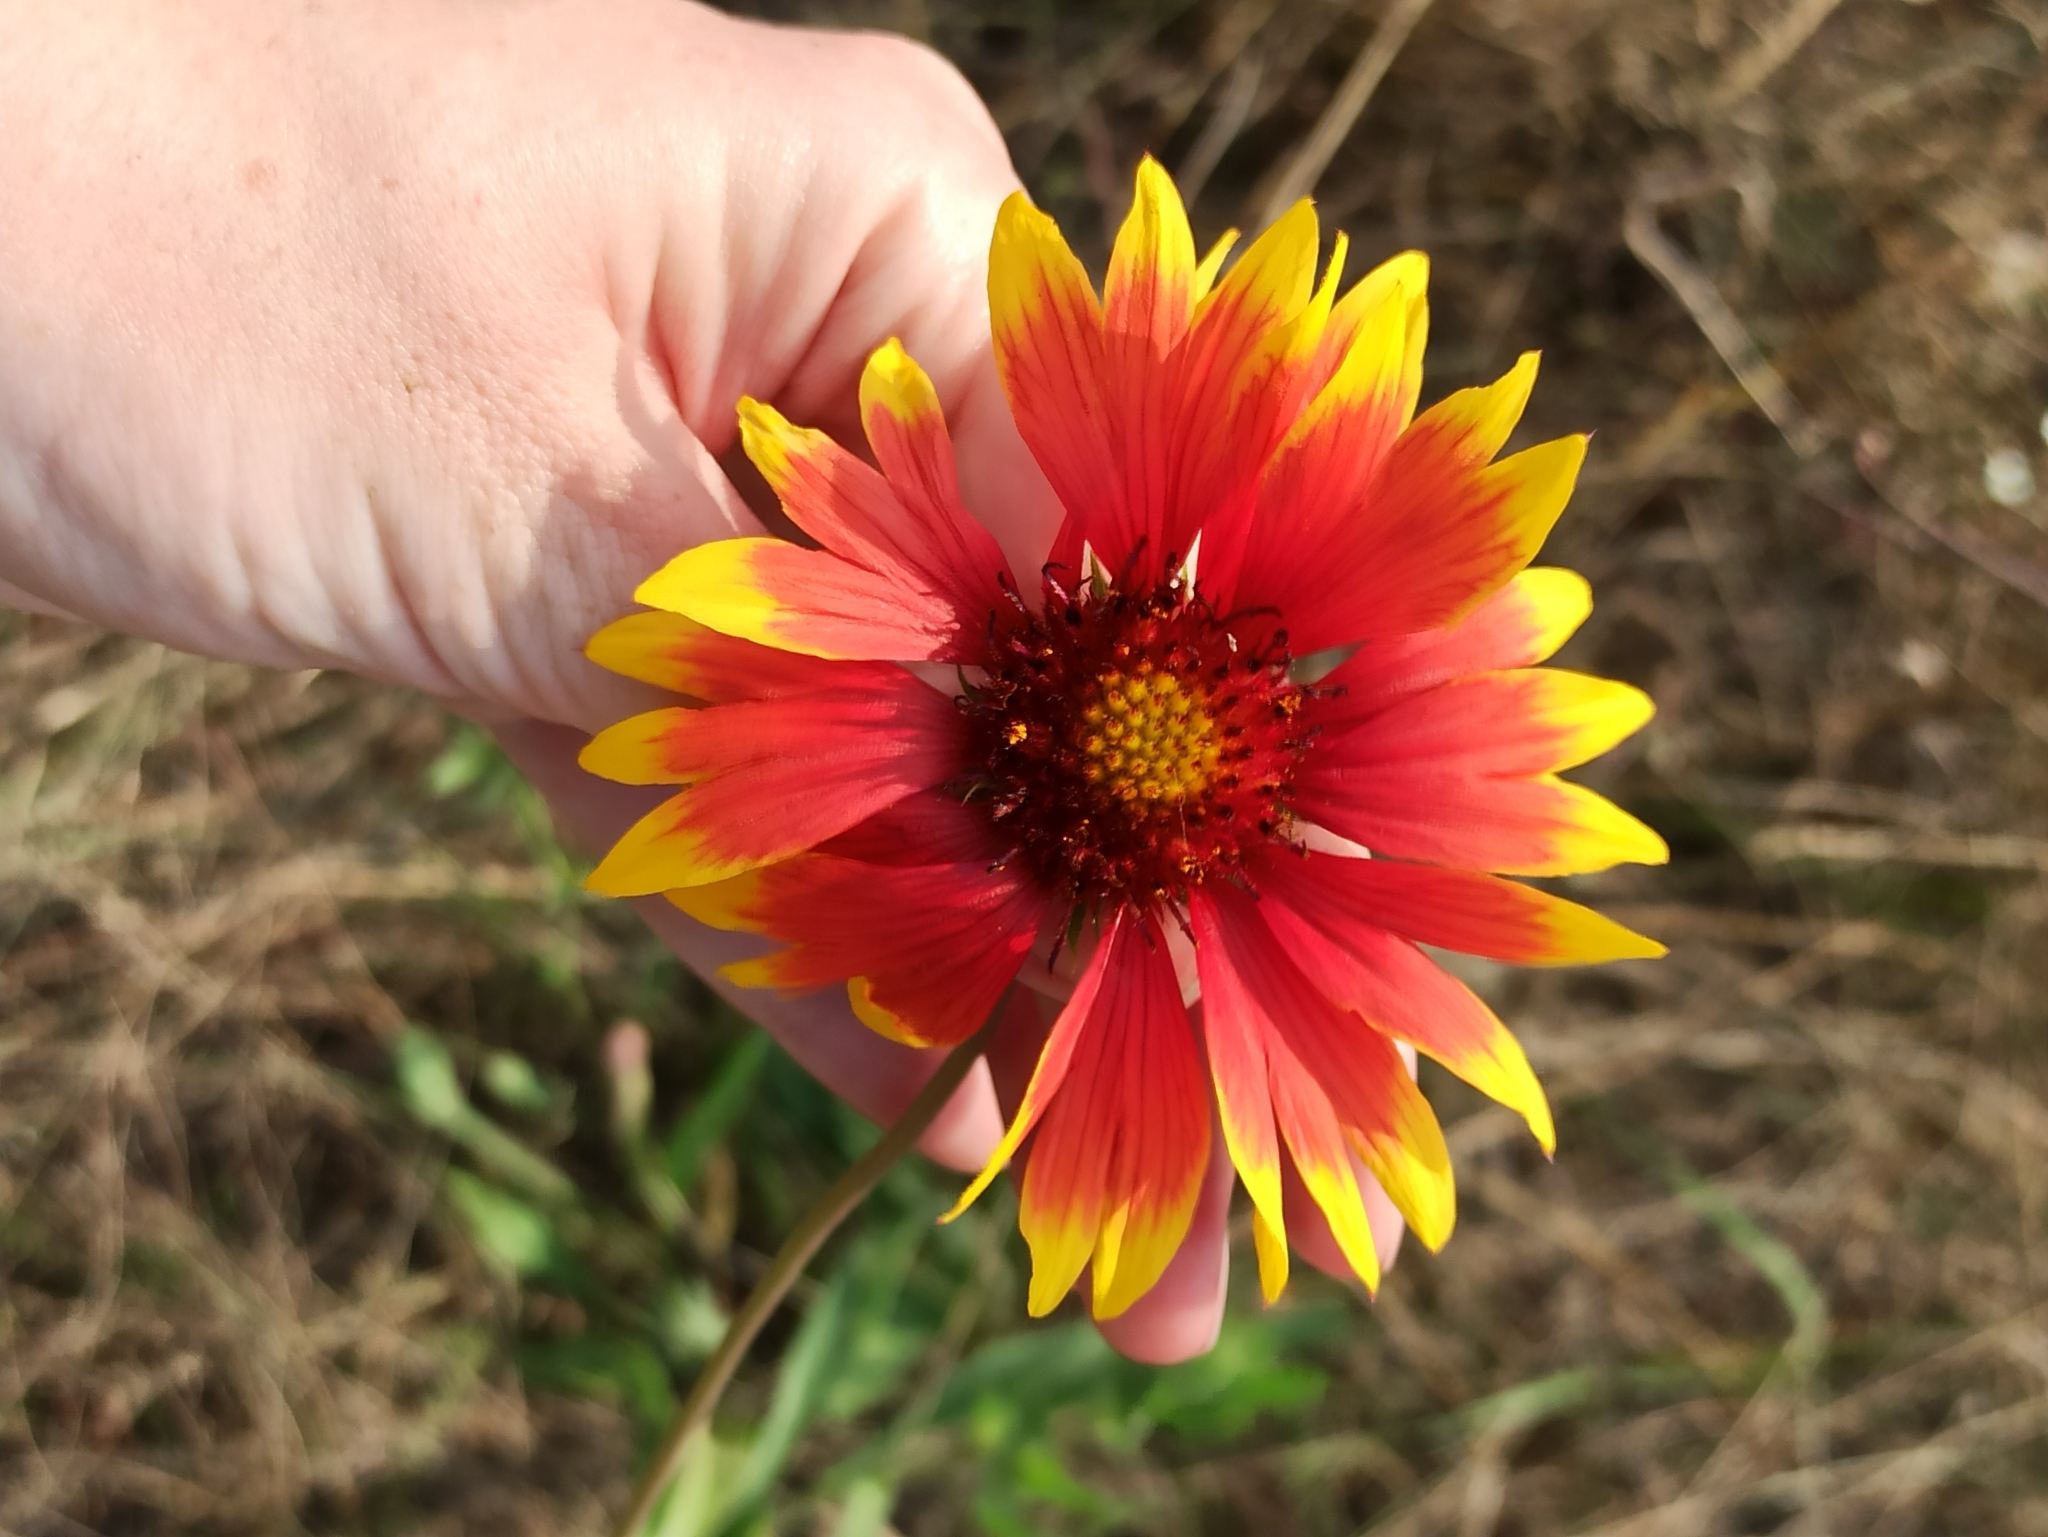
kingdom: Plantae
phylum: Tracheophyta
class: Magnoliopsida
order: Asterales
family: Asteraceae
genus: Gaillardia
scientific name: Gaillardia pulchella
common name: Firewheel
